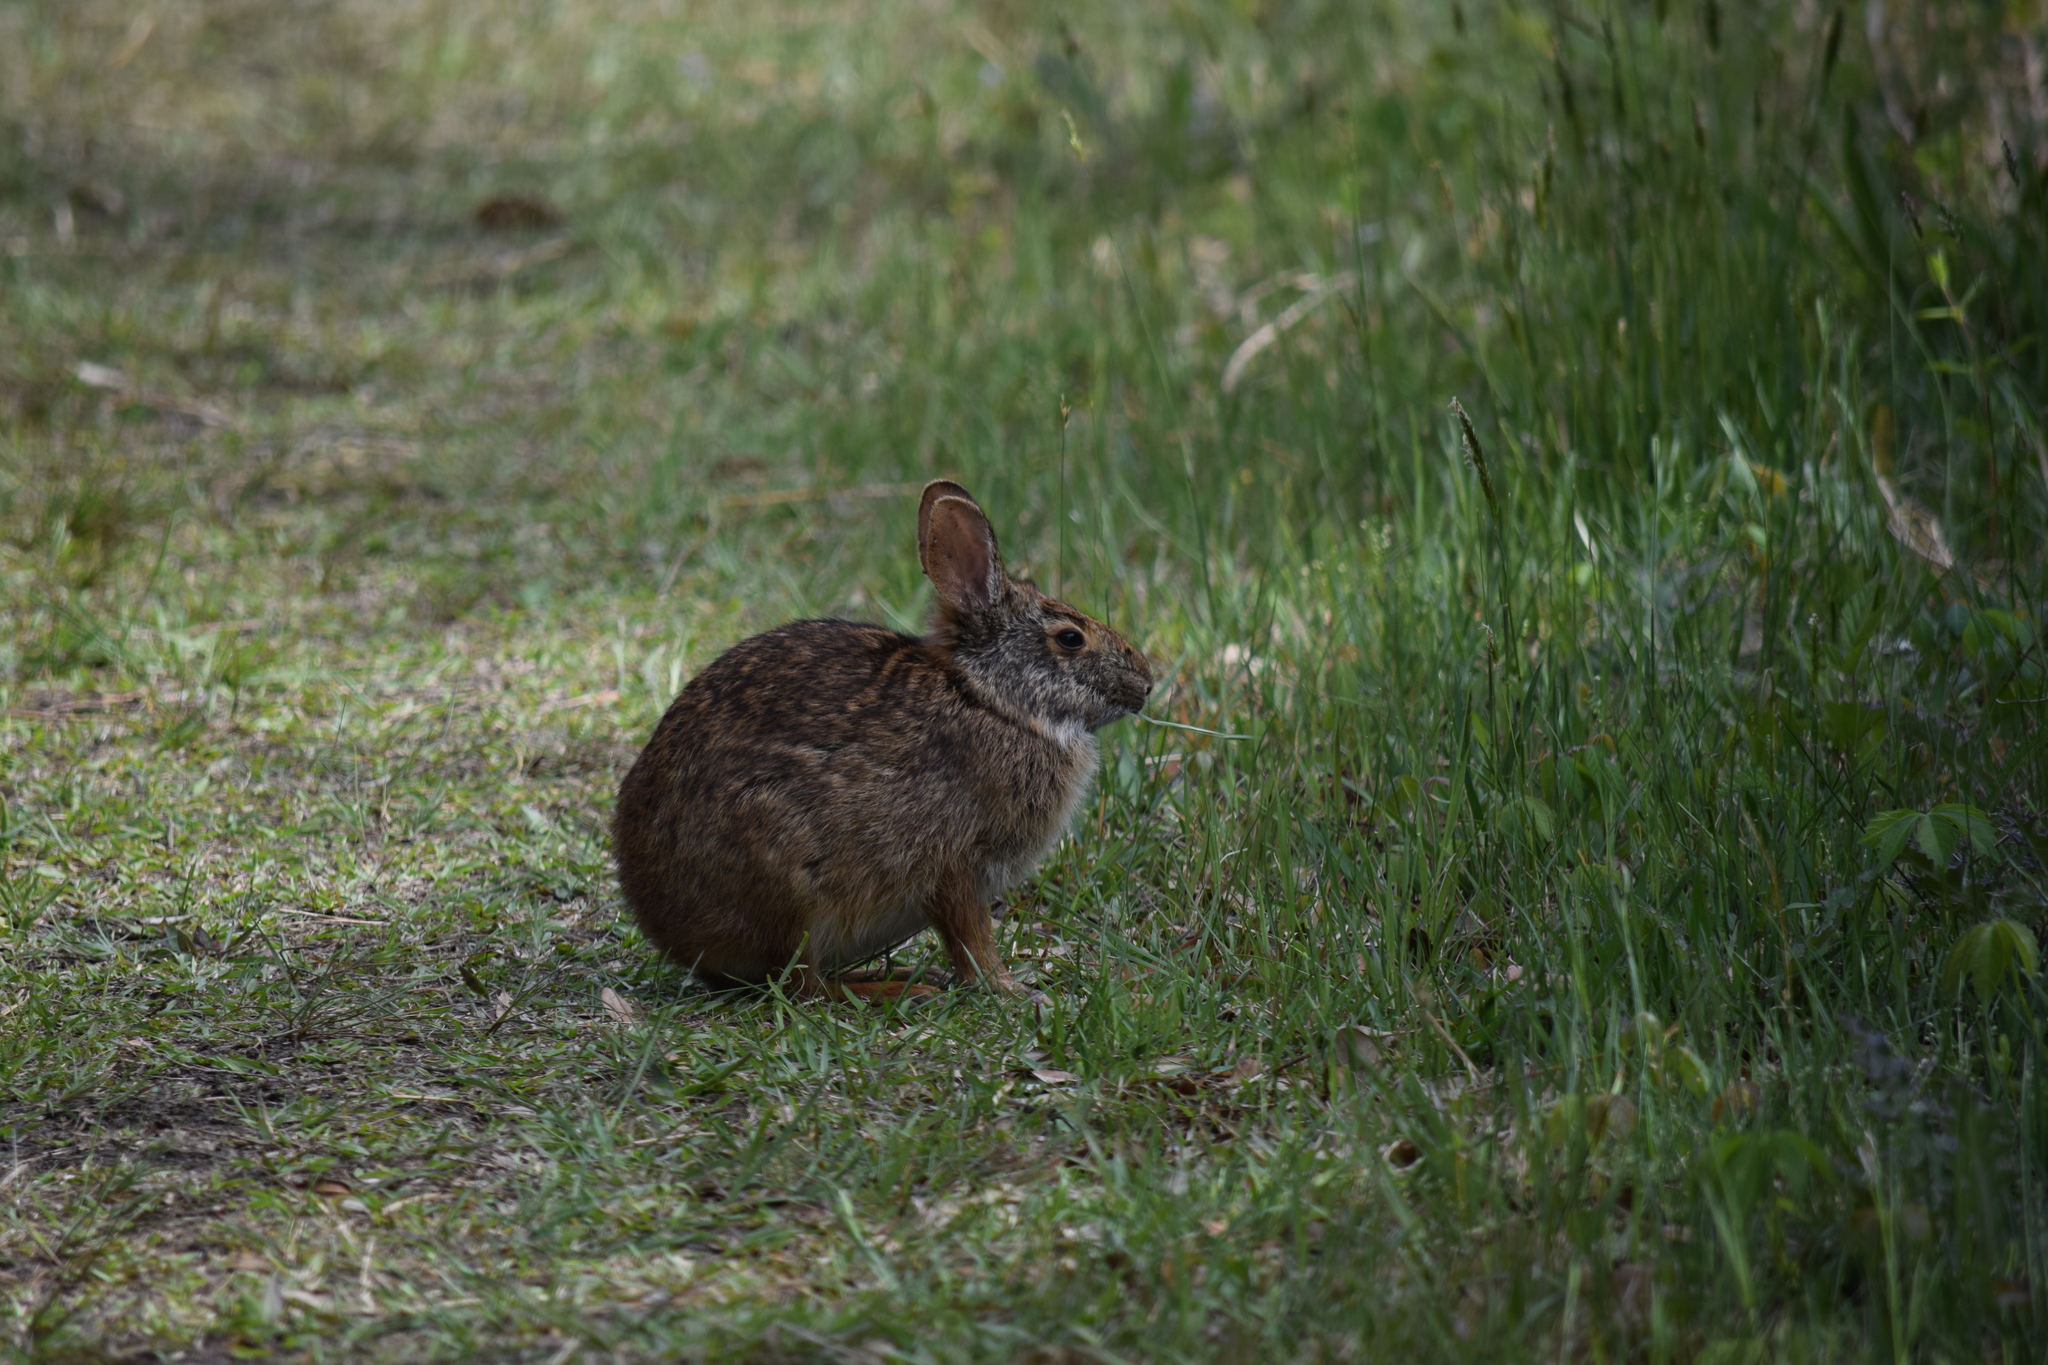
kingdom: Animalia
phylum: Chordata
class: Mammalia
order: Lagomorpha
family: Leporidae
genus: Sylvilagus
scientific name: Sylvilagus palustris
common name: Marsh rabbit
